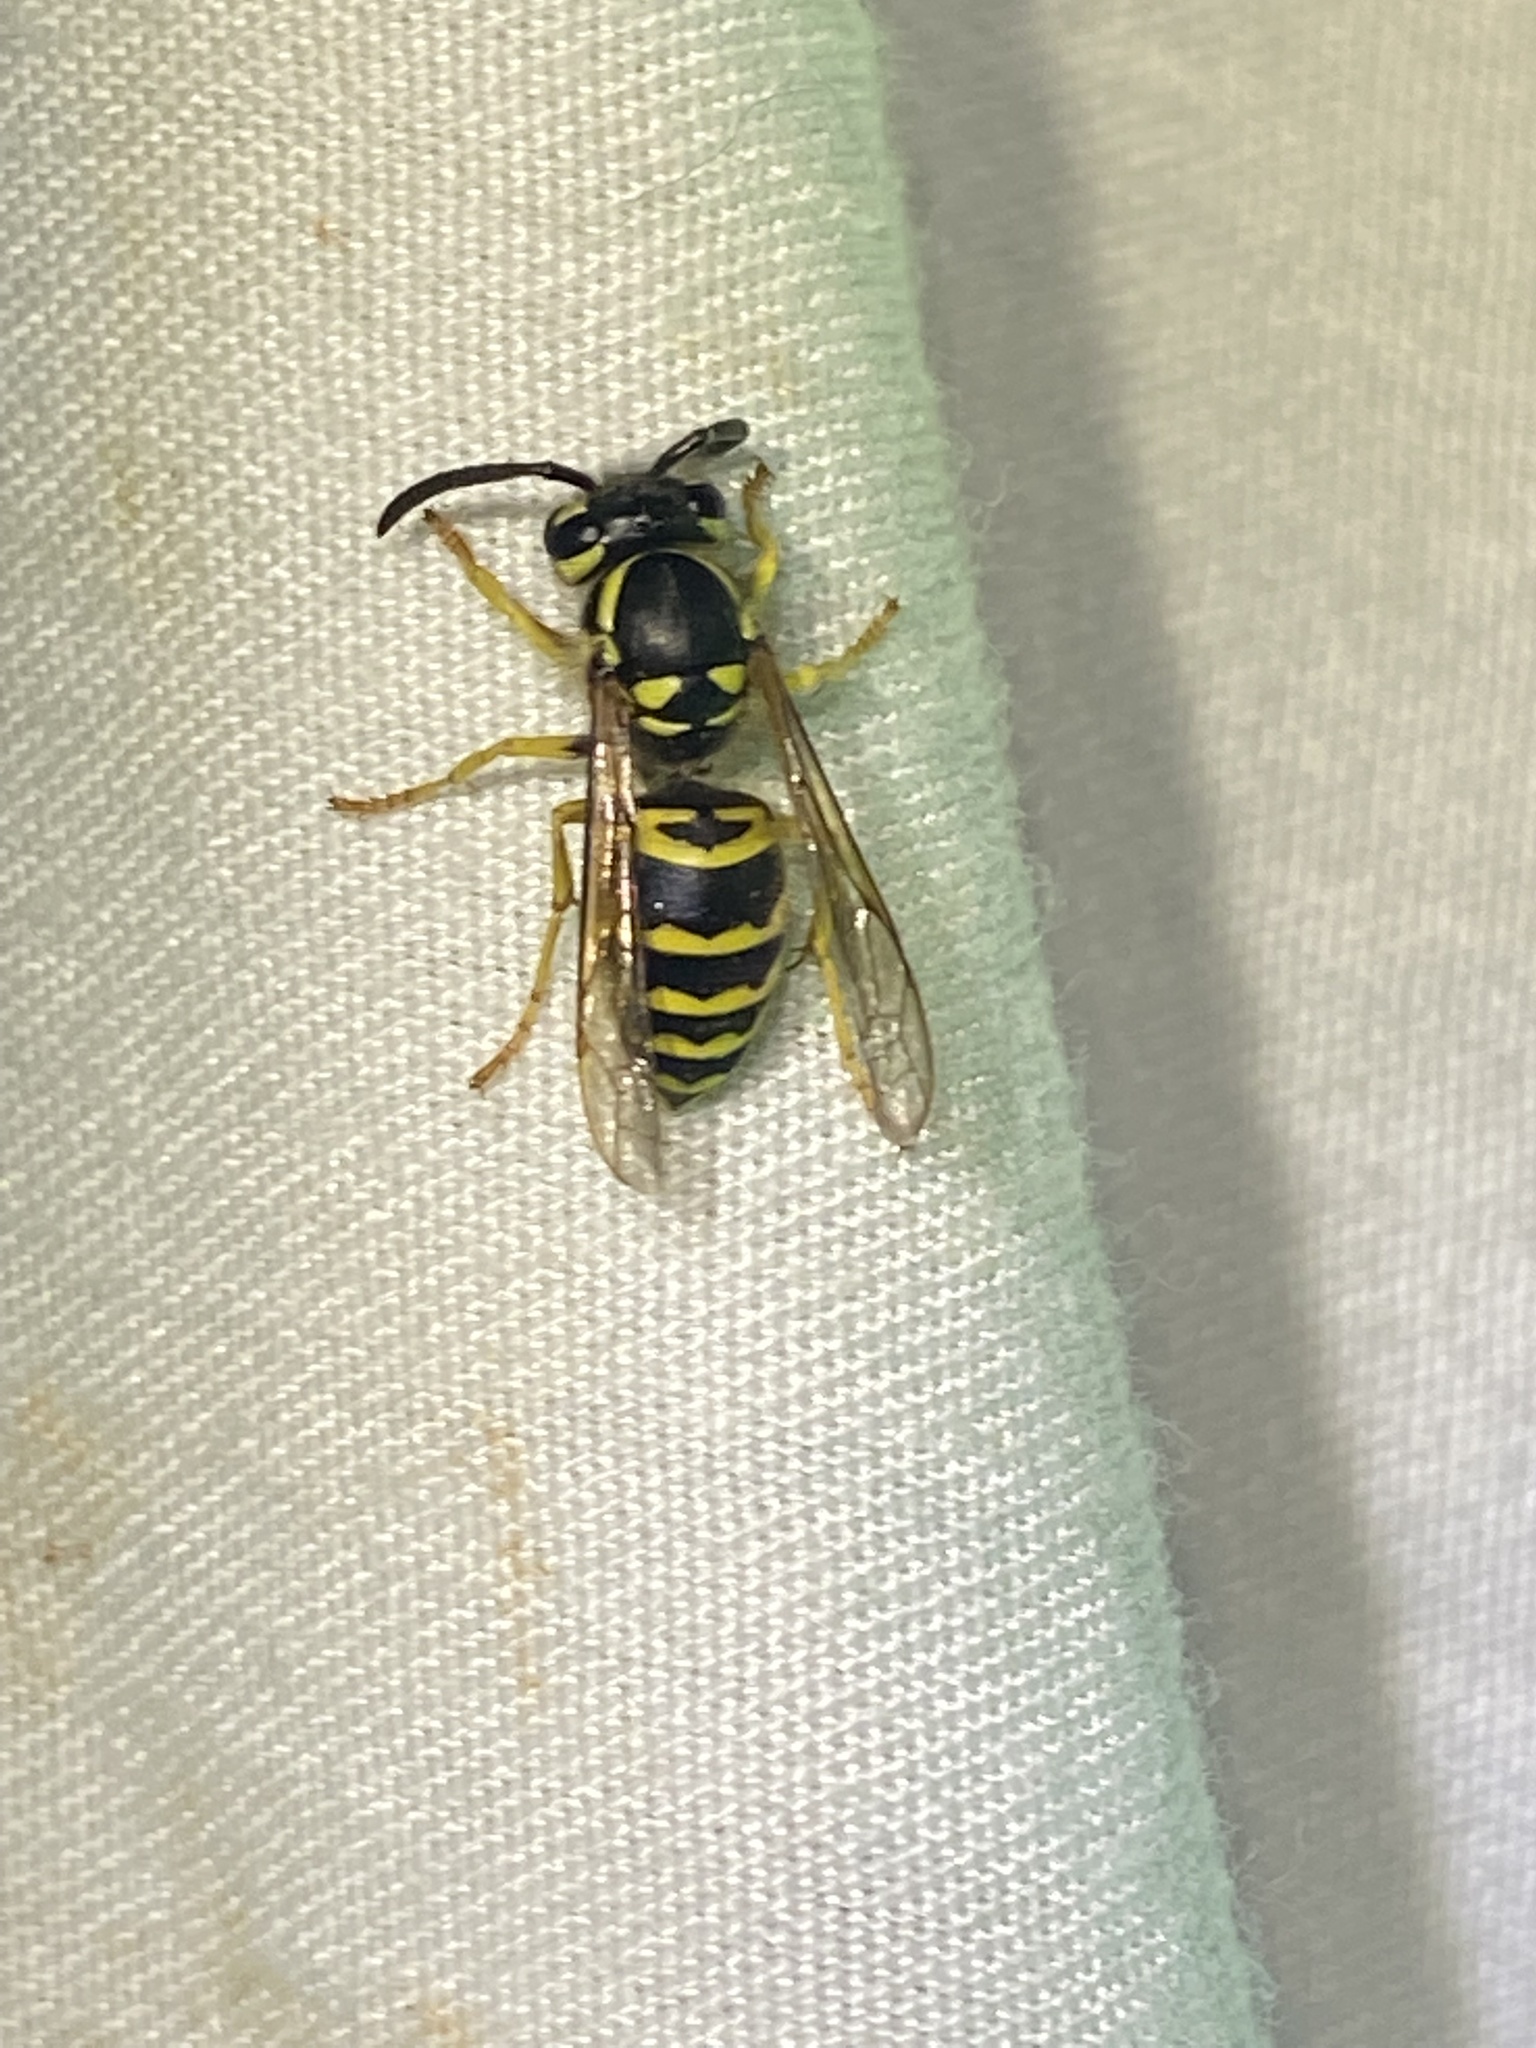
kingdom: Animalia
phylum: Arthropoda
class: Insecta
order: Hymenoptera
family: Vespidae
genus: Vespula
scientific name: Vespula maculifrons
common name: Eastern yellowjacket
